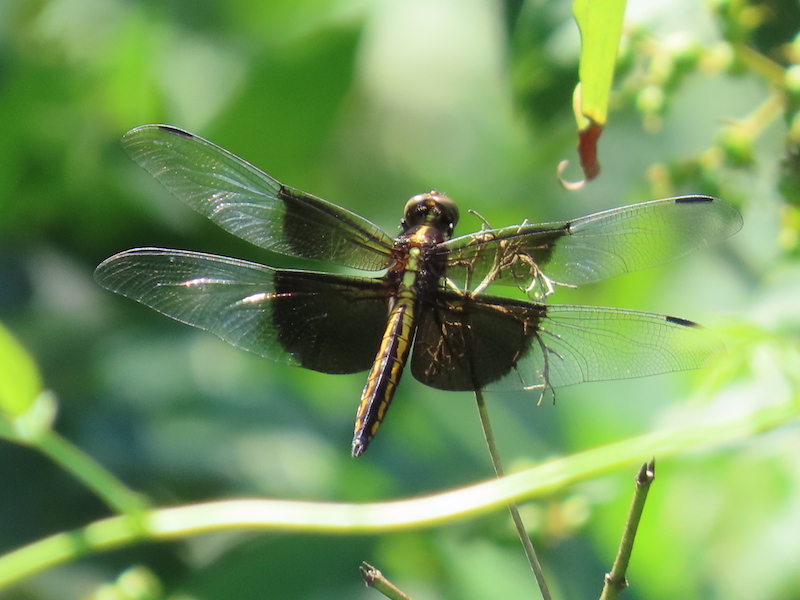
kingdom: Animalia
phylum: Arthropoda
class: Insecta
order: Odonata
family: Libellulidae
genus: Libellula
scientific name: Libellula luctuosa
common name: Widow skimmer
